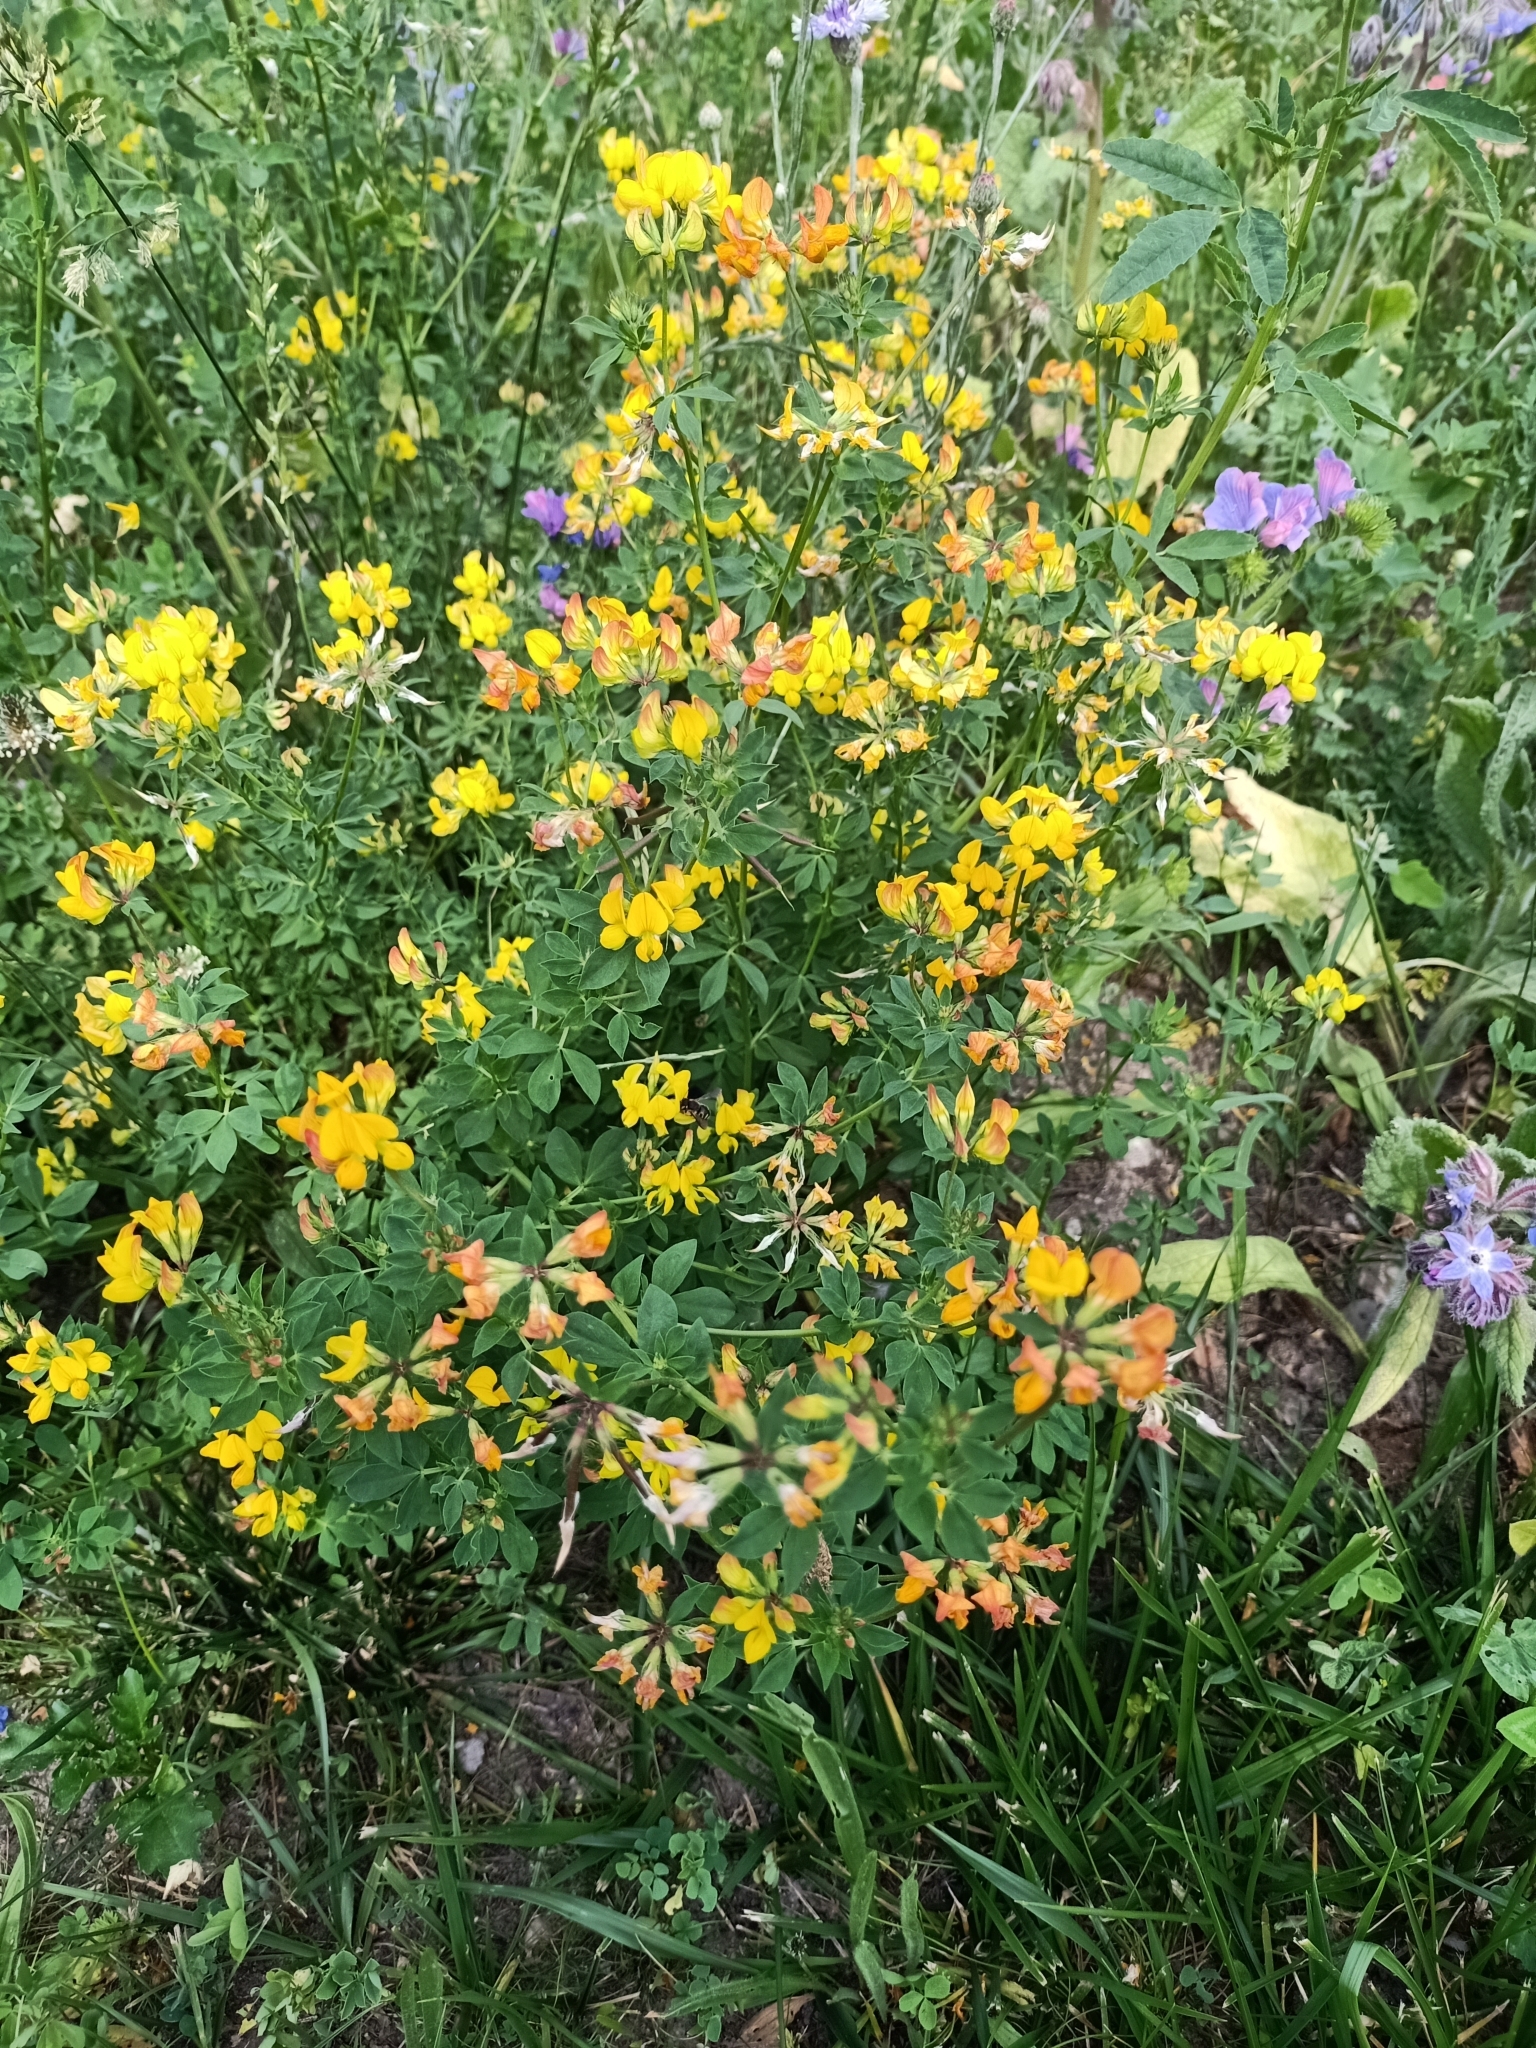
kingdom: Plantae
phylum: Tracheophyta
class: Magnoliopsida
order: Fabales
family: Fabaceae
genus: Lotus
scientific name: Lotus corniculatus
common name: Common bird's-foot-trefoil
